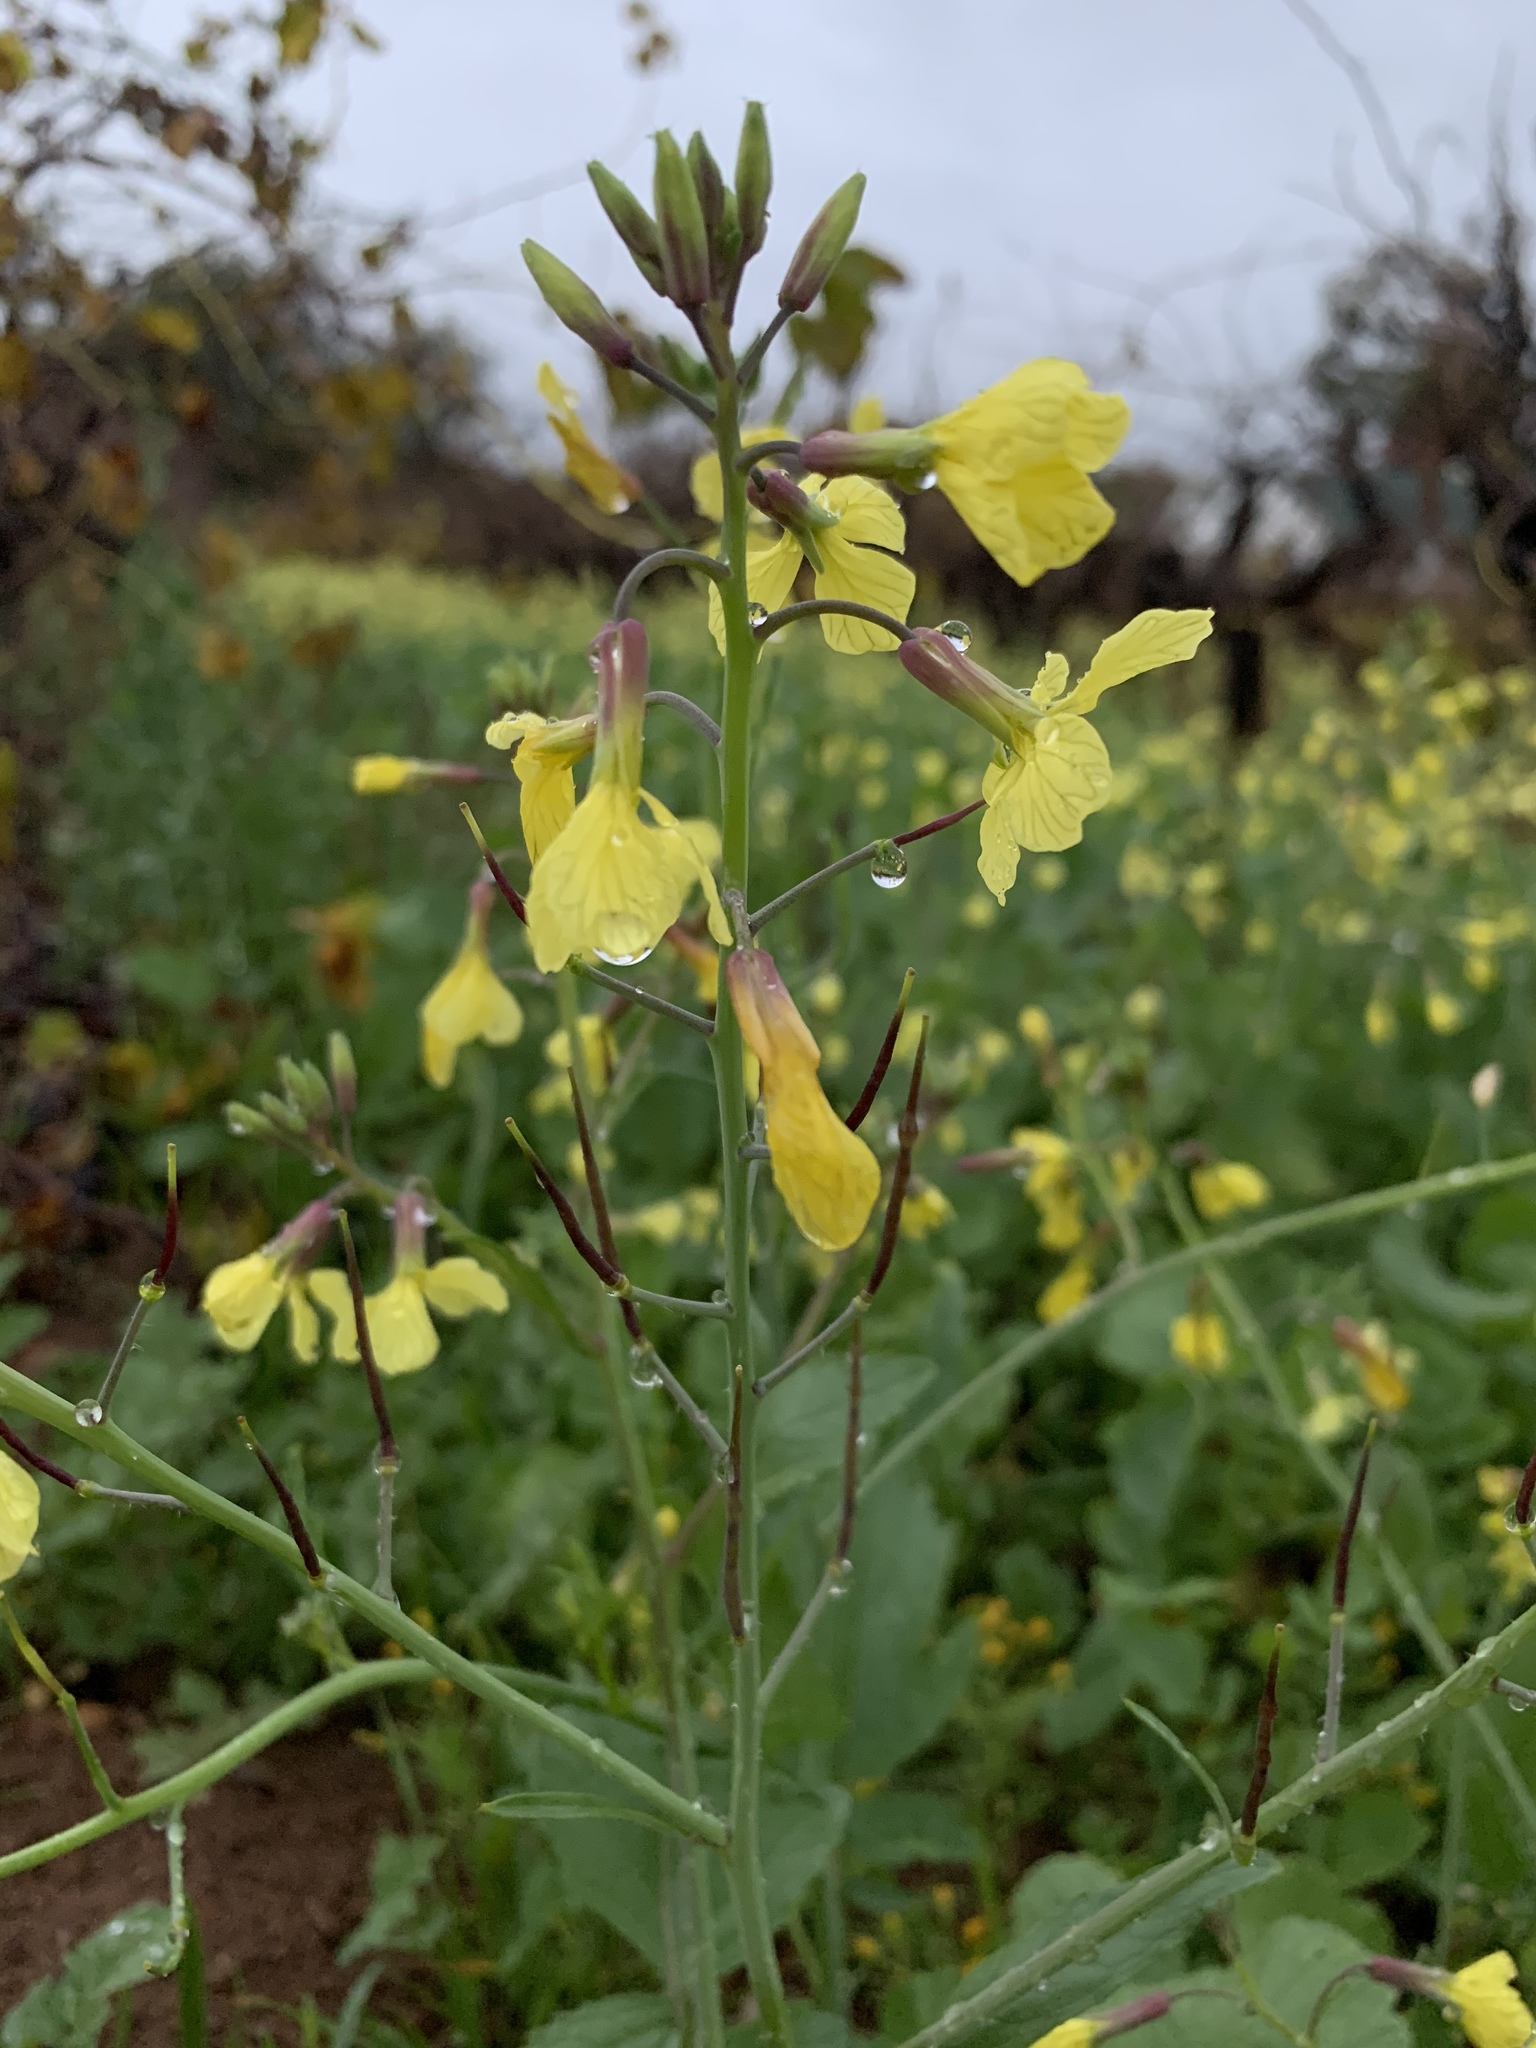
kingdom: Plantae
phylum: Tracheophyta
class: Magnoliopsida
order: Brassicales
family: Brassicaceae
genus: Raphanus
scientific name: Raphanus raphanistrum
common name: Wild radish
